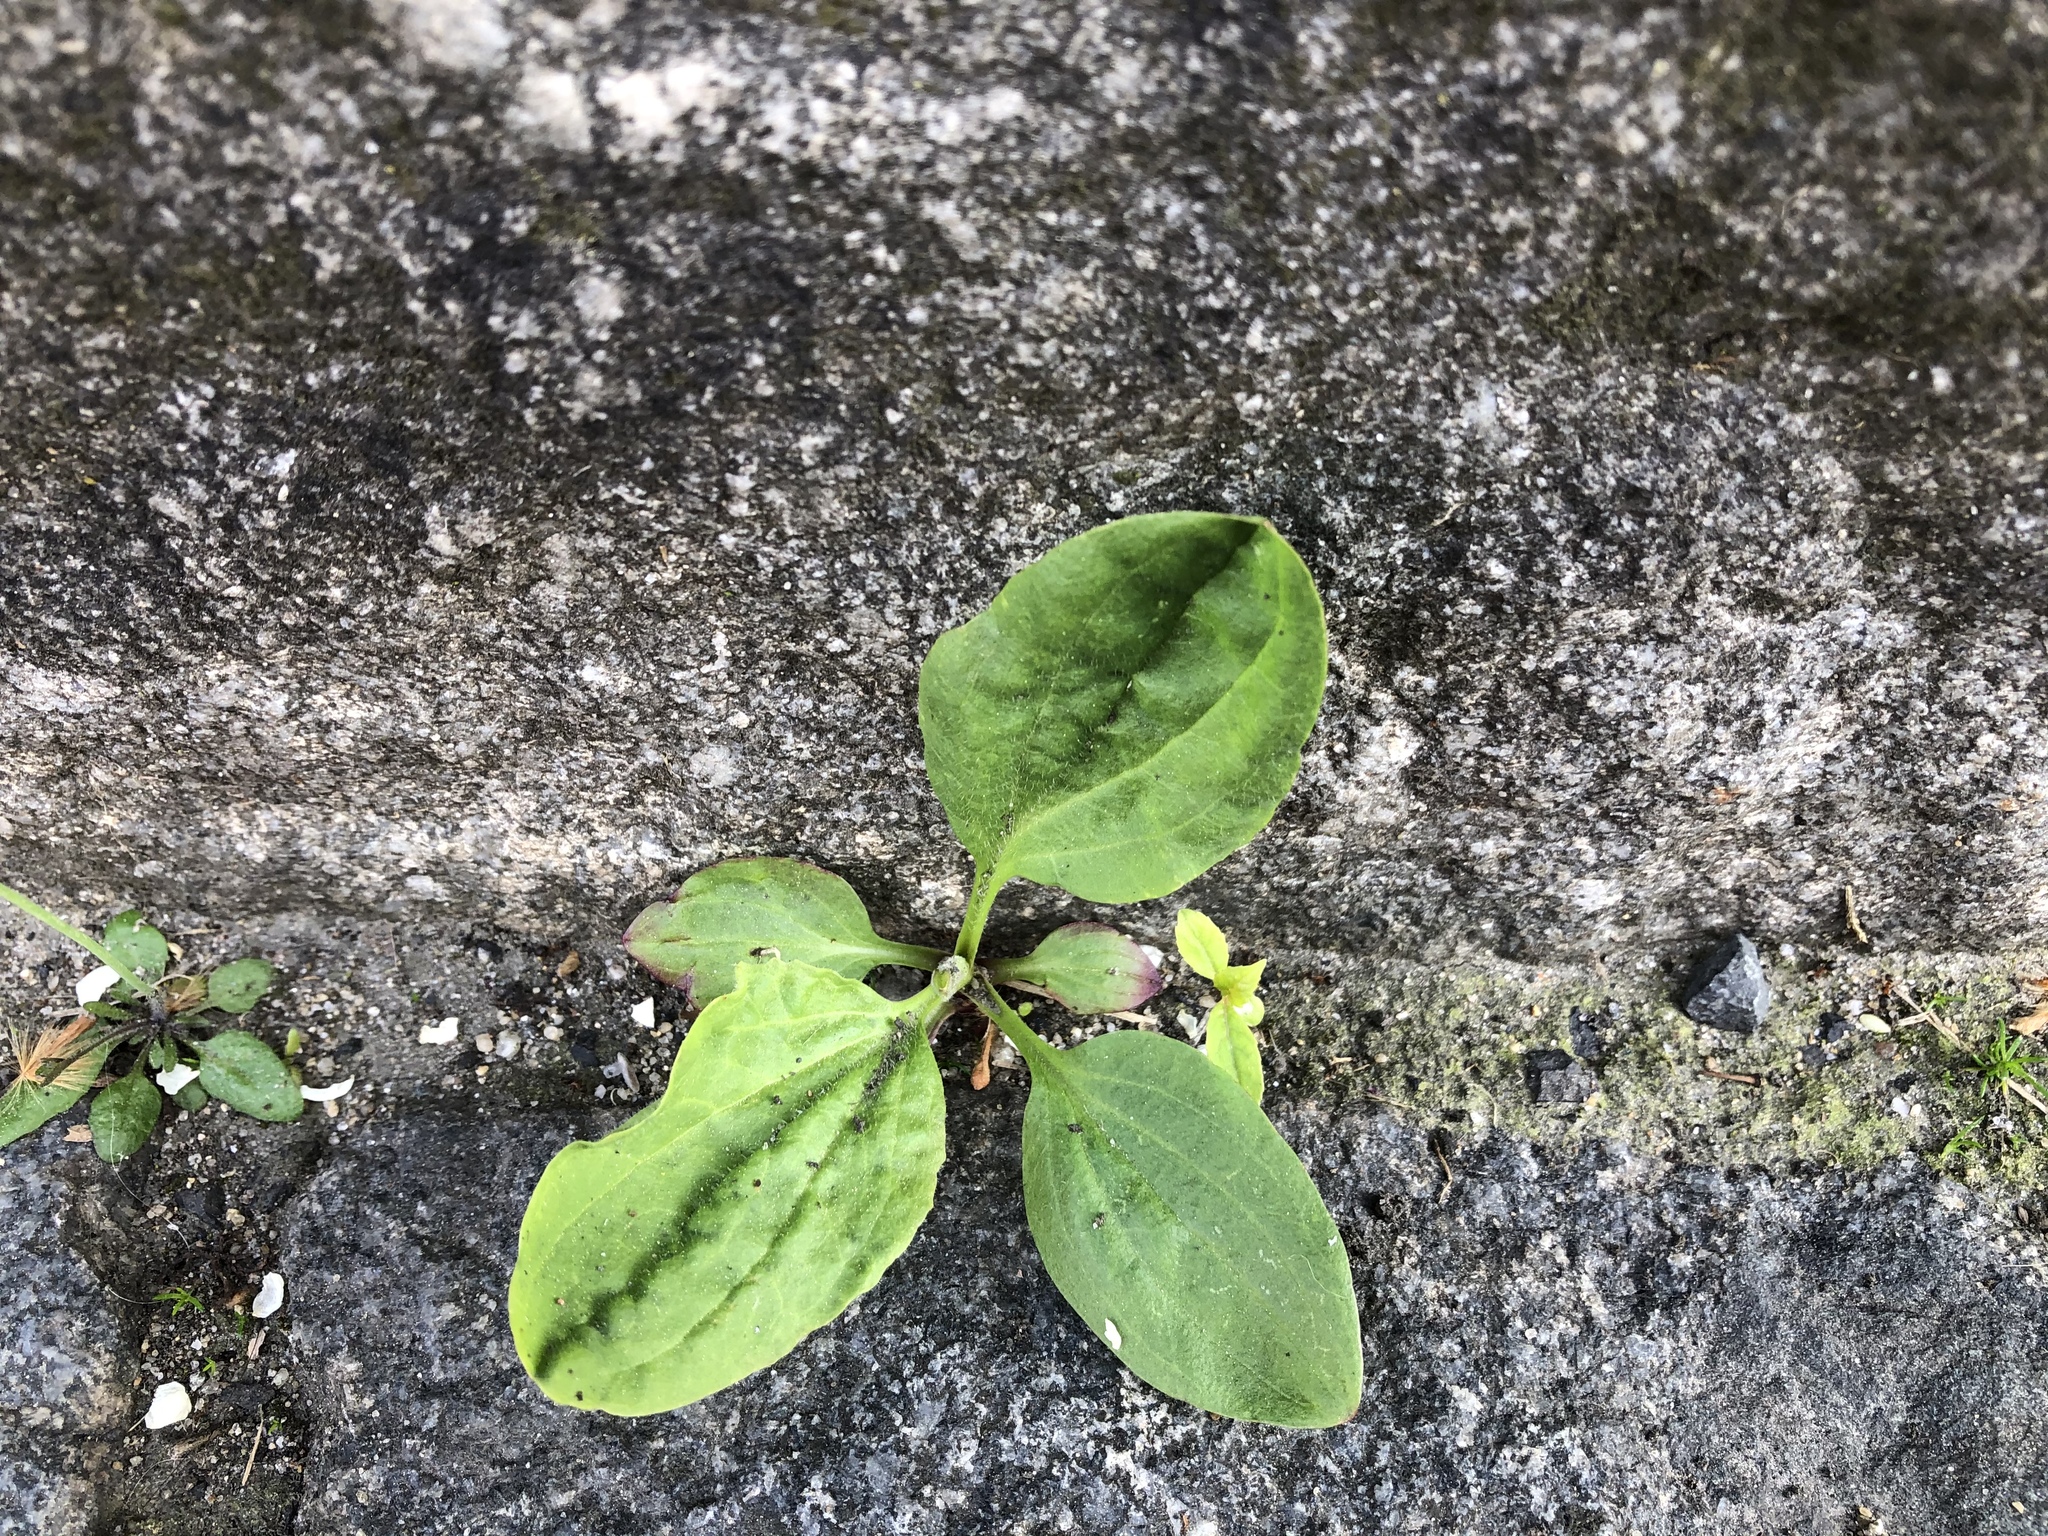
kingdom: Plantae
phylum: Tracheophyta
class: Magnoliopsida
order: Lamiales
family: Plantaginaceae
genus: Plantago
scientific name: Plantago major
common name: Common plantain
